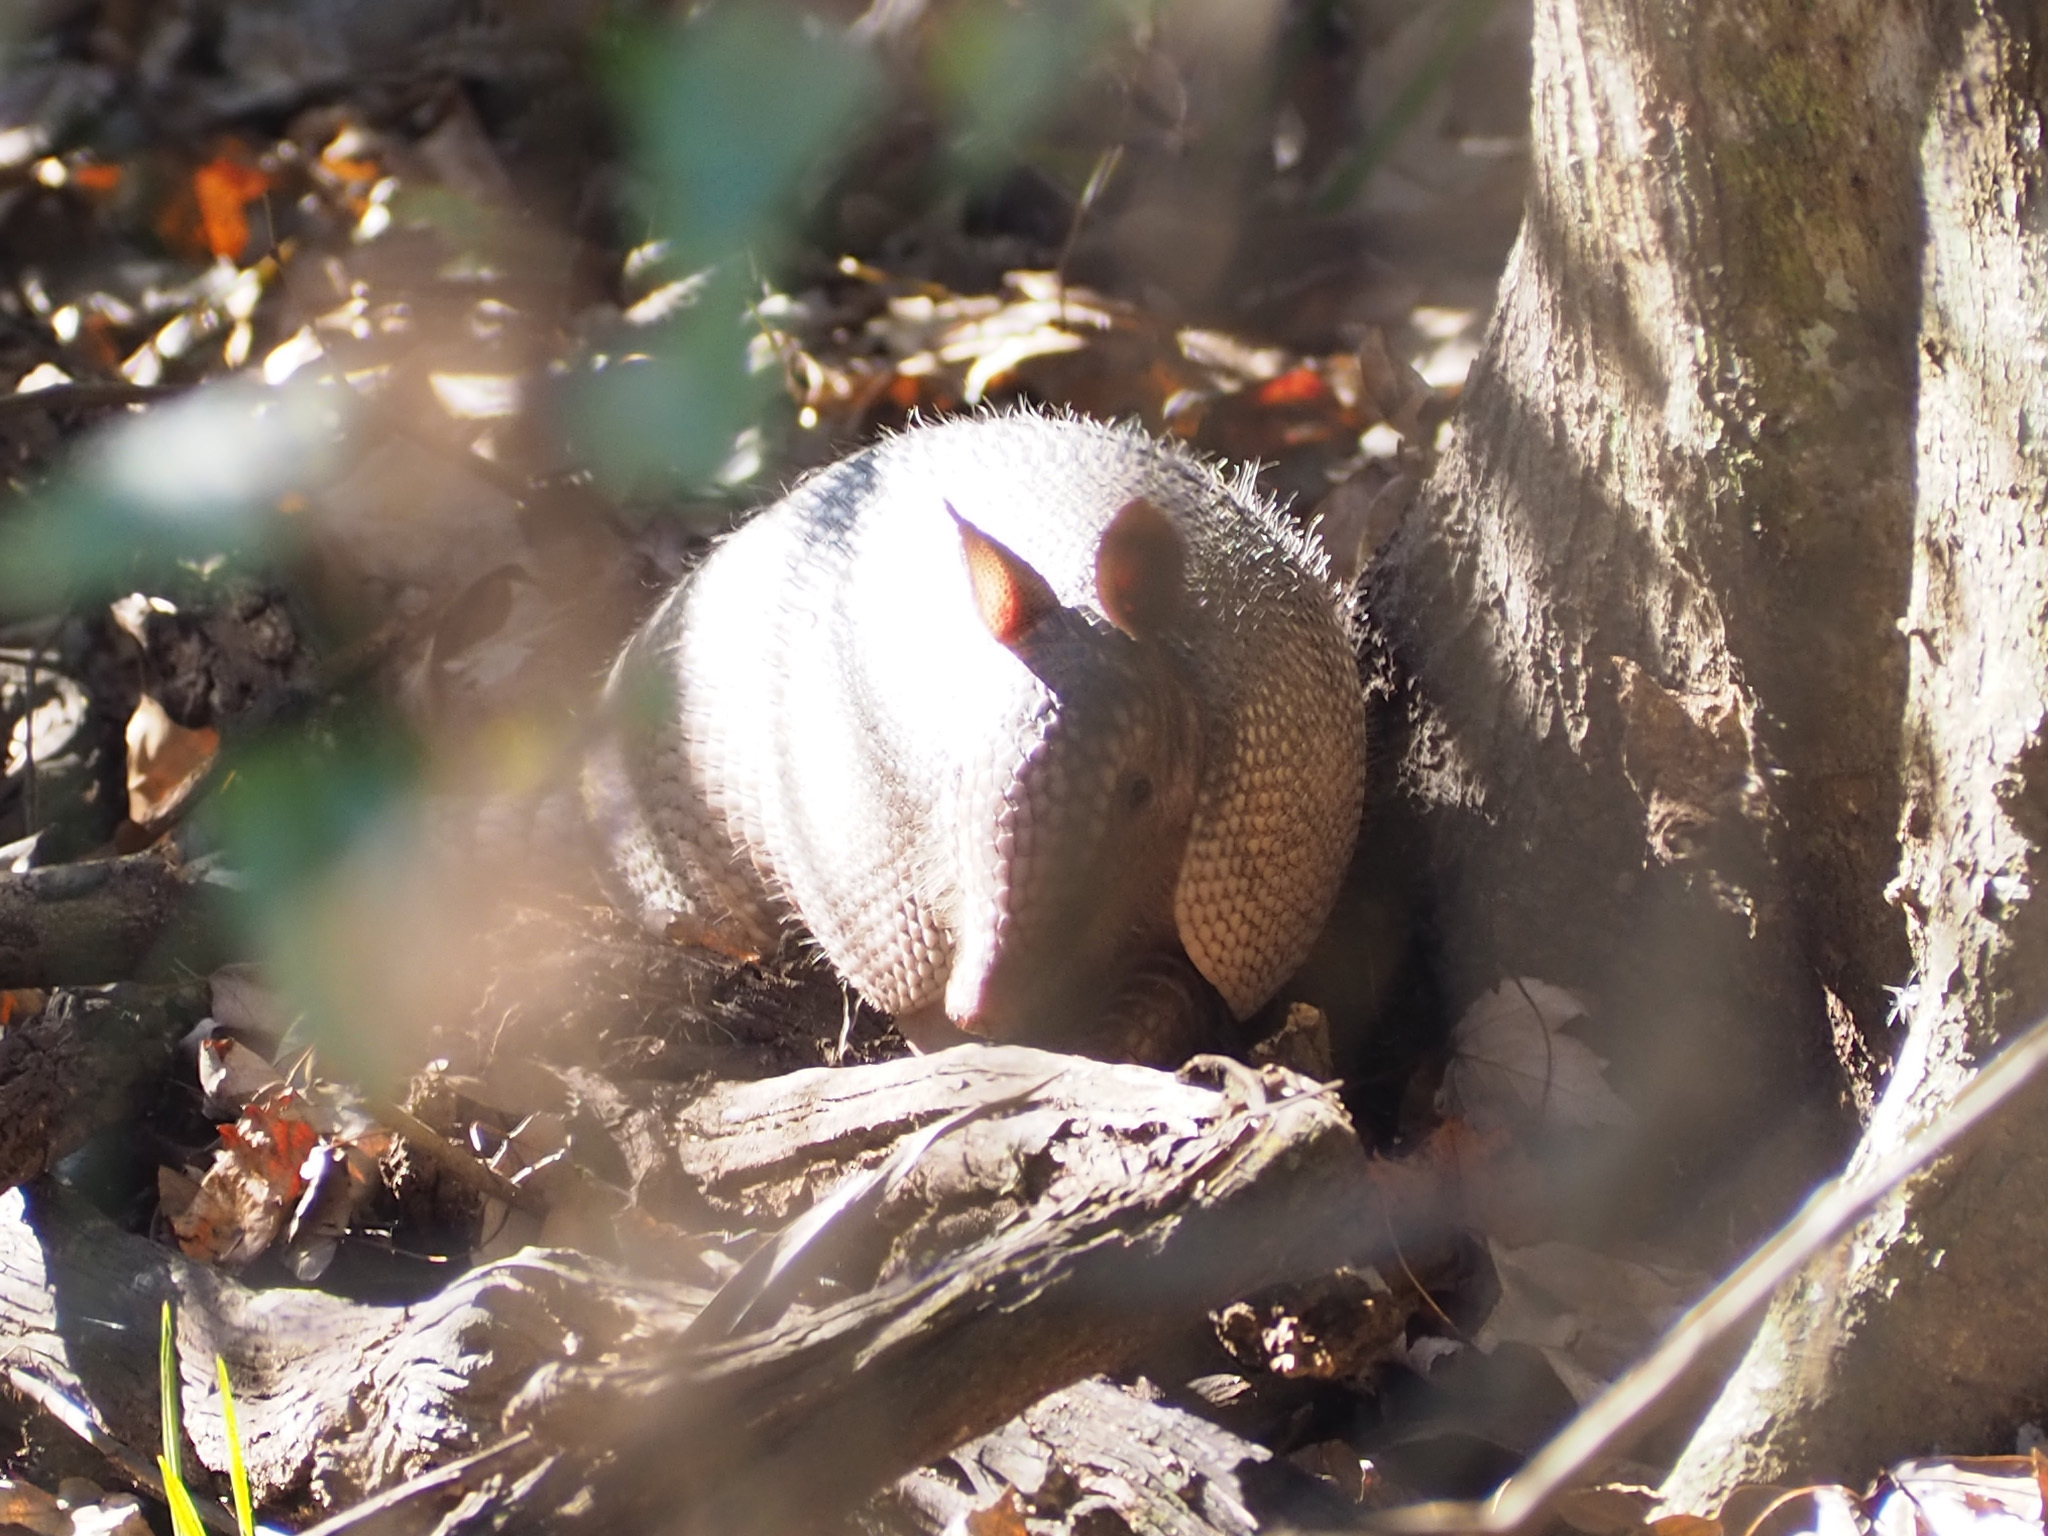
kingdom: Animalia
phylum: Chordata
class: Mammalia
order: Cingulata
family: Dasypodidae
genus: Dasypus
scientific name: Dasypus novemcinctus
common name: Nine-banded armadillo
